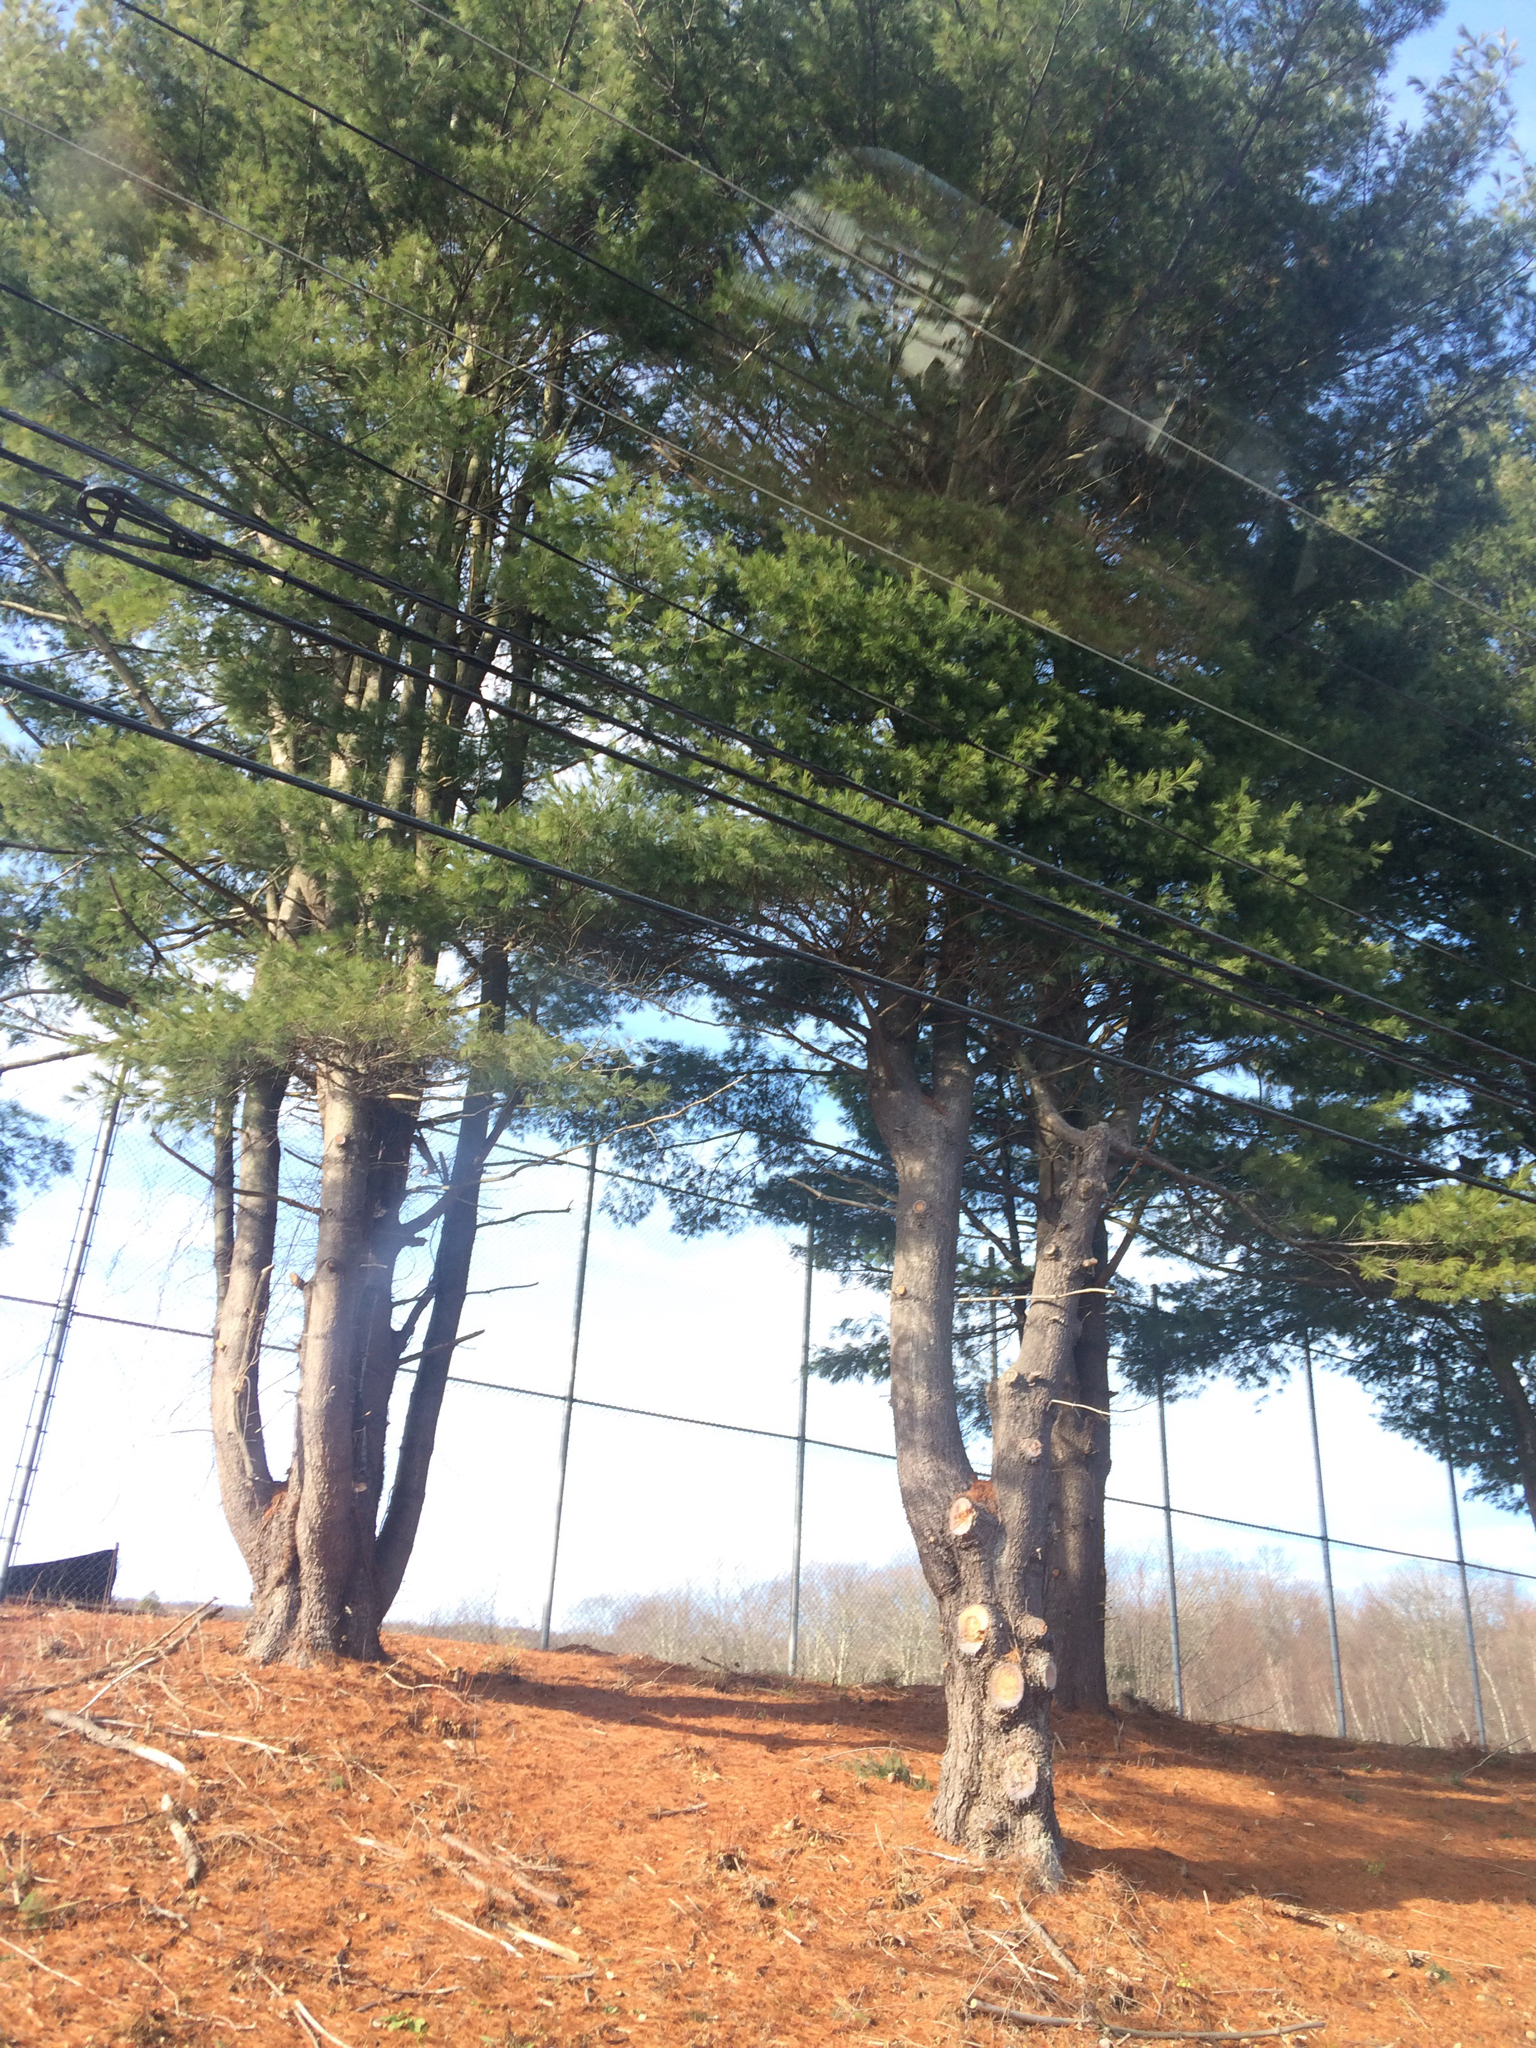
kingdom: Plantae
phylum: Tracheophyta
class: Pinopsida
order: Pinales
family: Pinaceae
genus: Pinus
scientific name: Pinus strobus
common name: Weymouth pine
